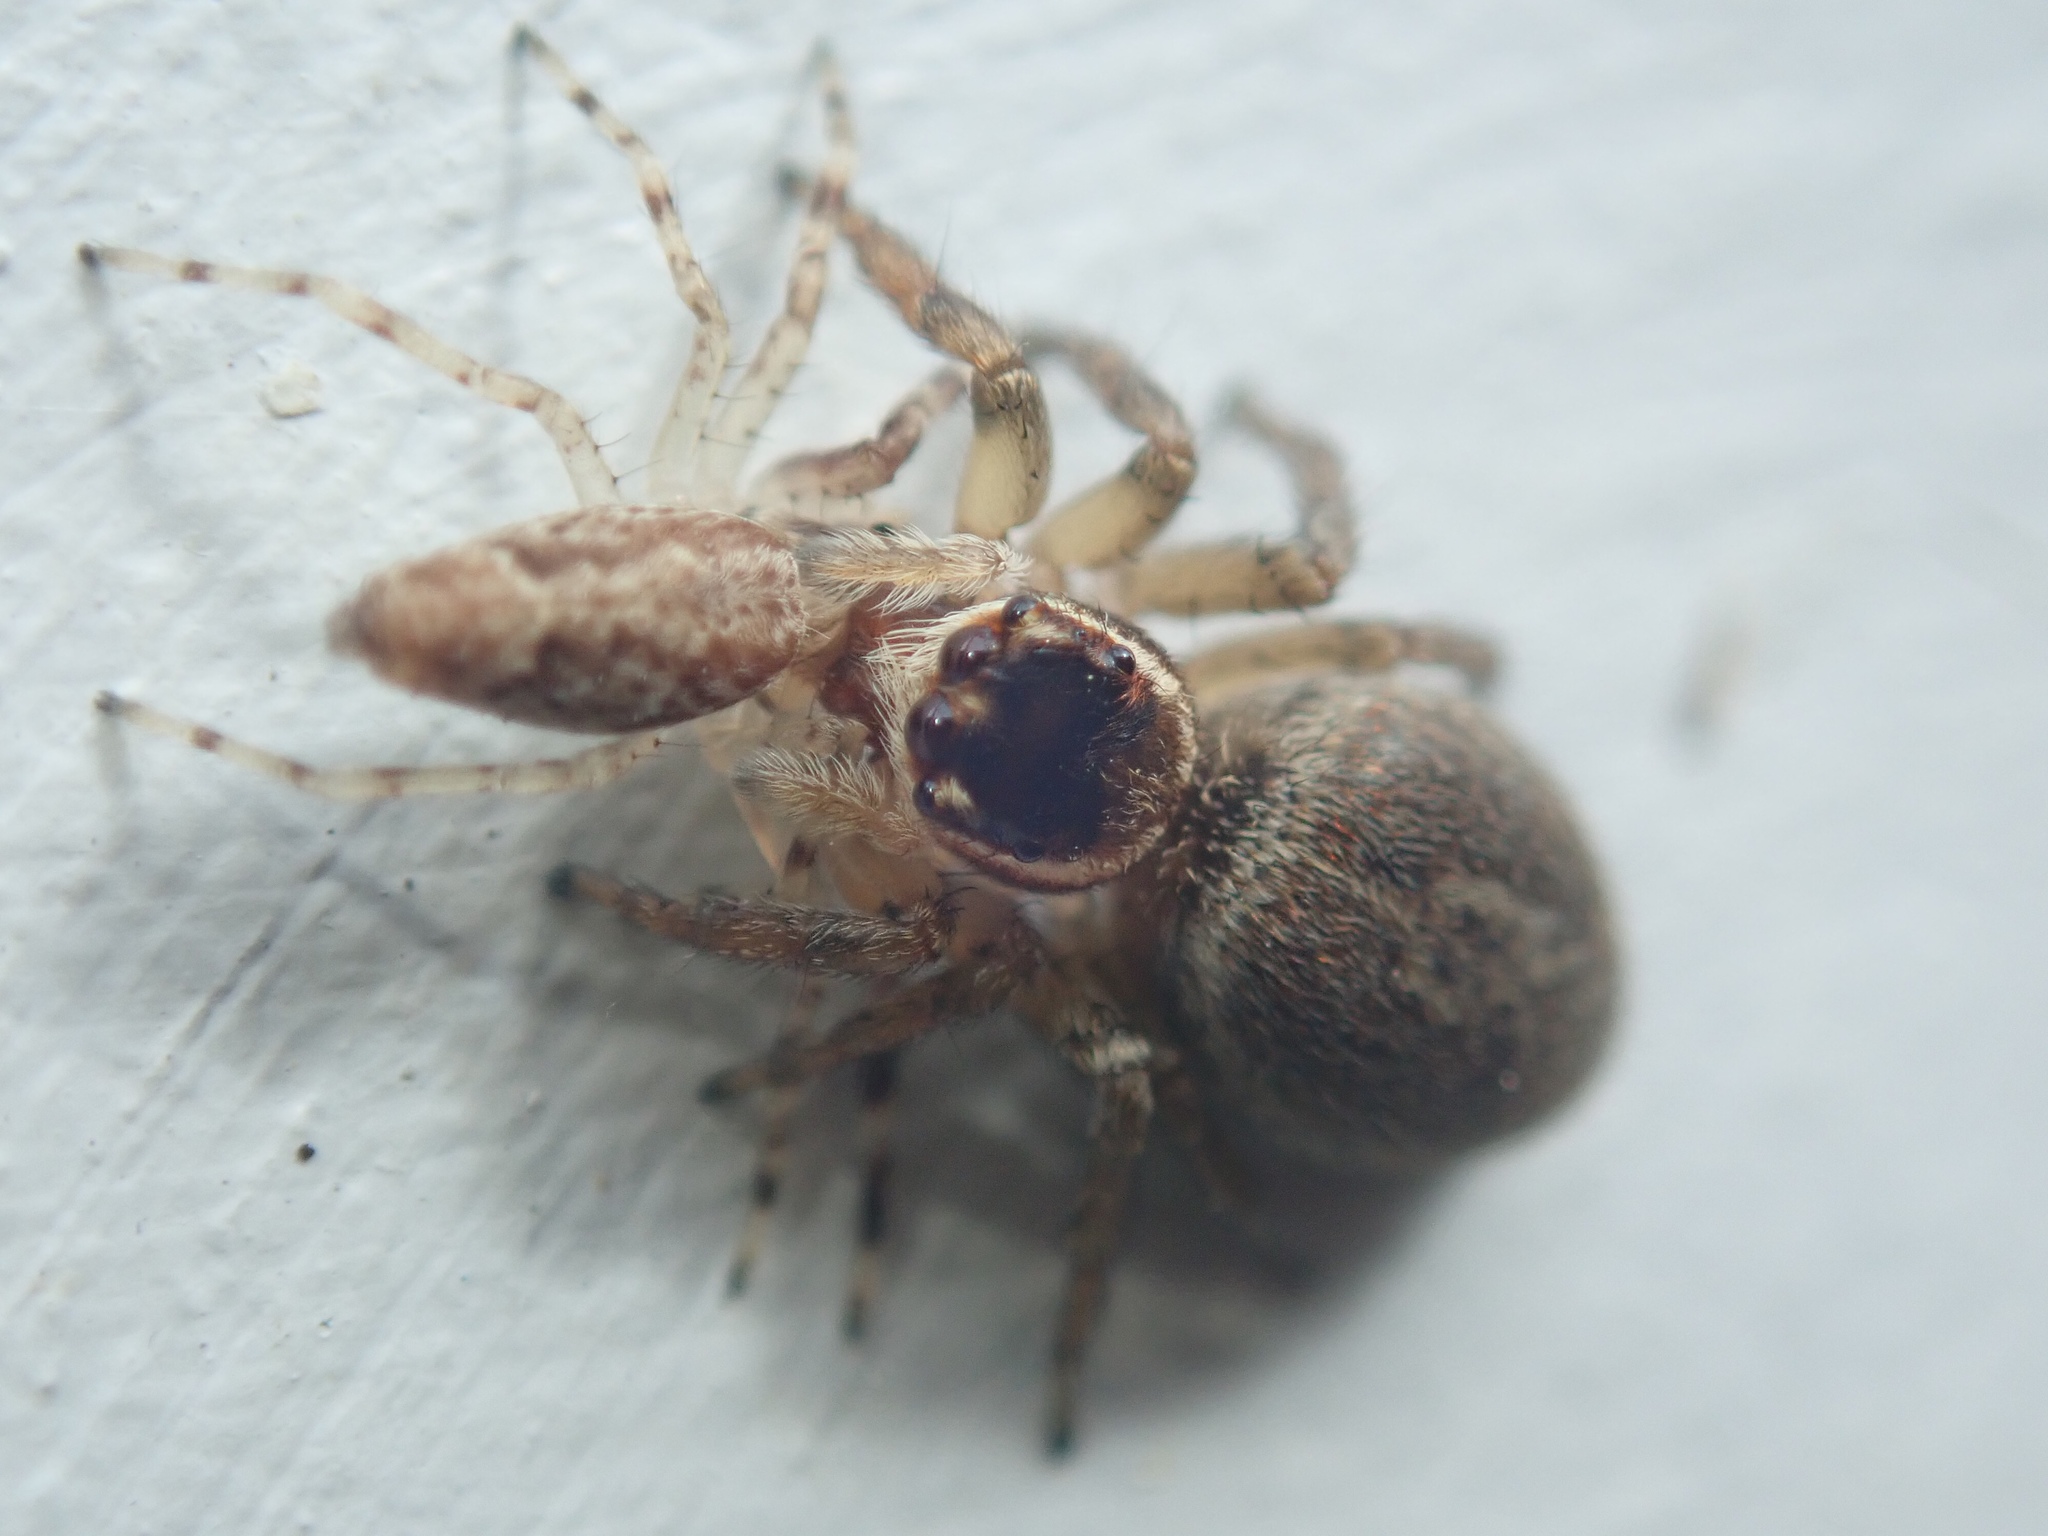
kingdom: Animalia
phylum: Arthropoda
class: Arachnida
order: Araneae
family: Salticidae
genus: Maratus
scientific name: Maratus griseus
